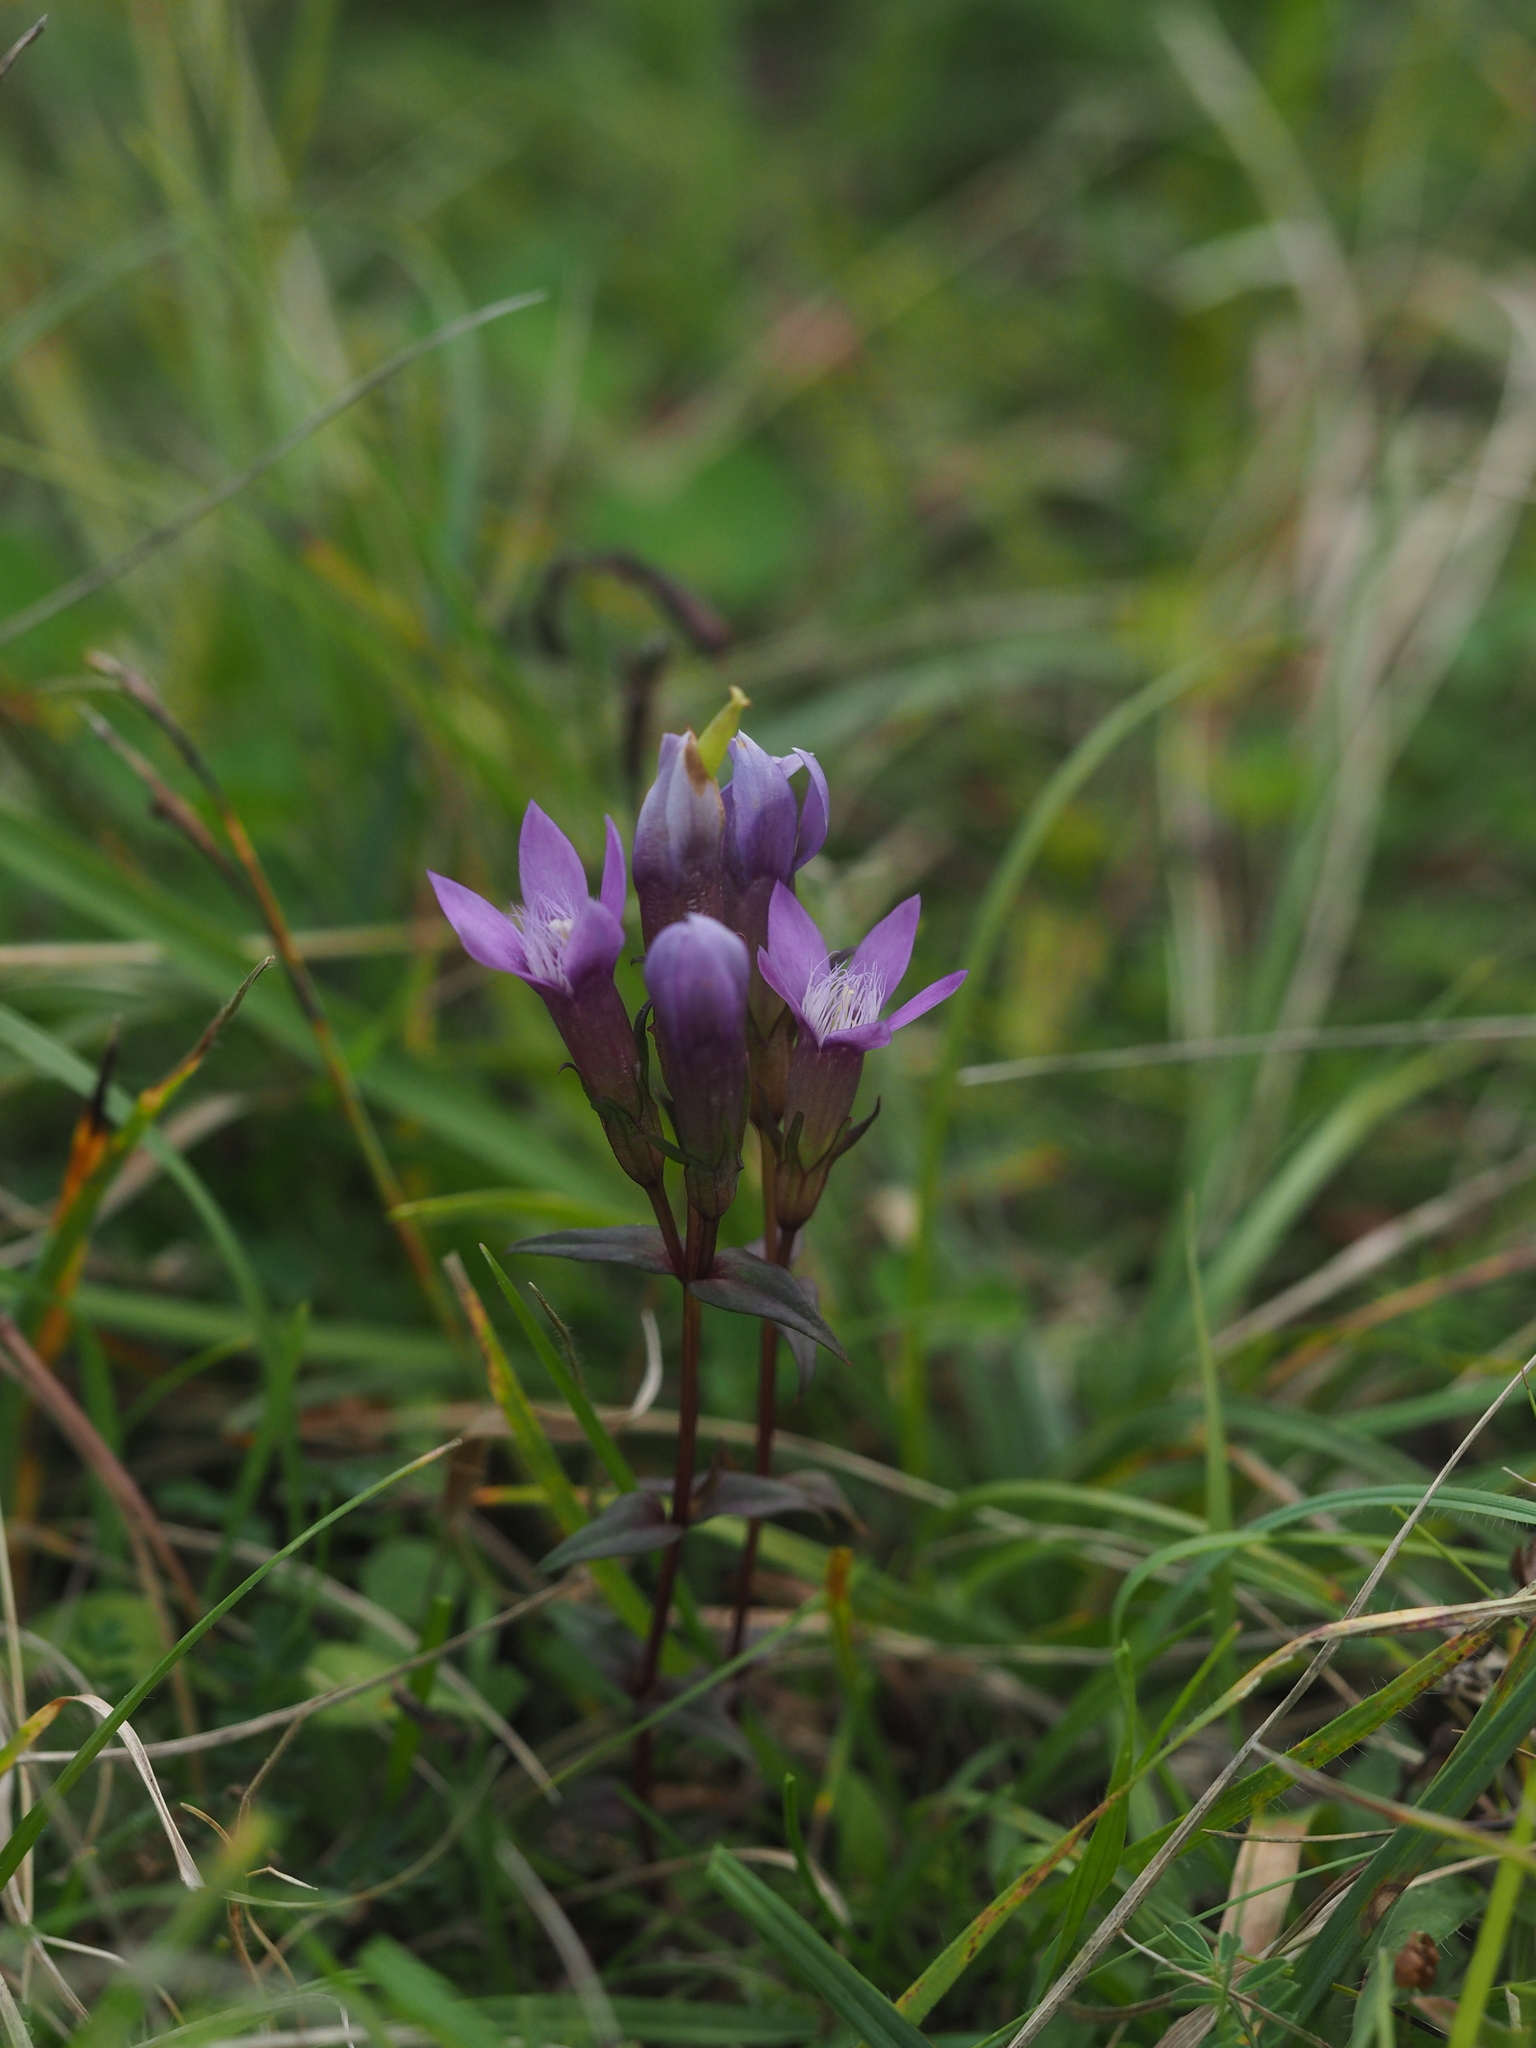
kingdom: Plantae
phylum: Tracheophyta
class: Magnoliopsida
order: Gentianales
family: Gentianaceae
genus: Gentianella
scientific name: Gentianella germanica
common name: Chiltern-gentian
